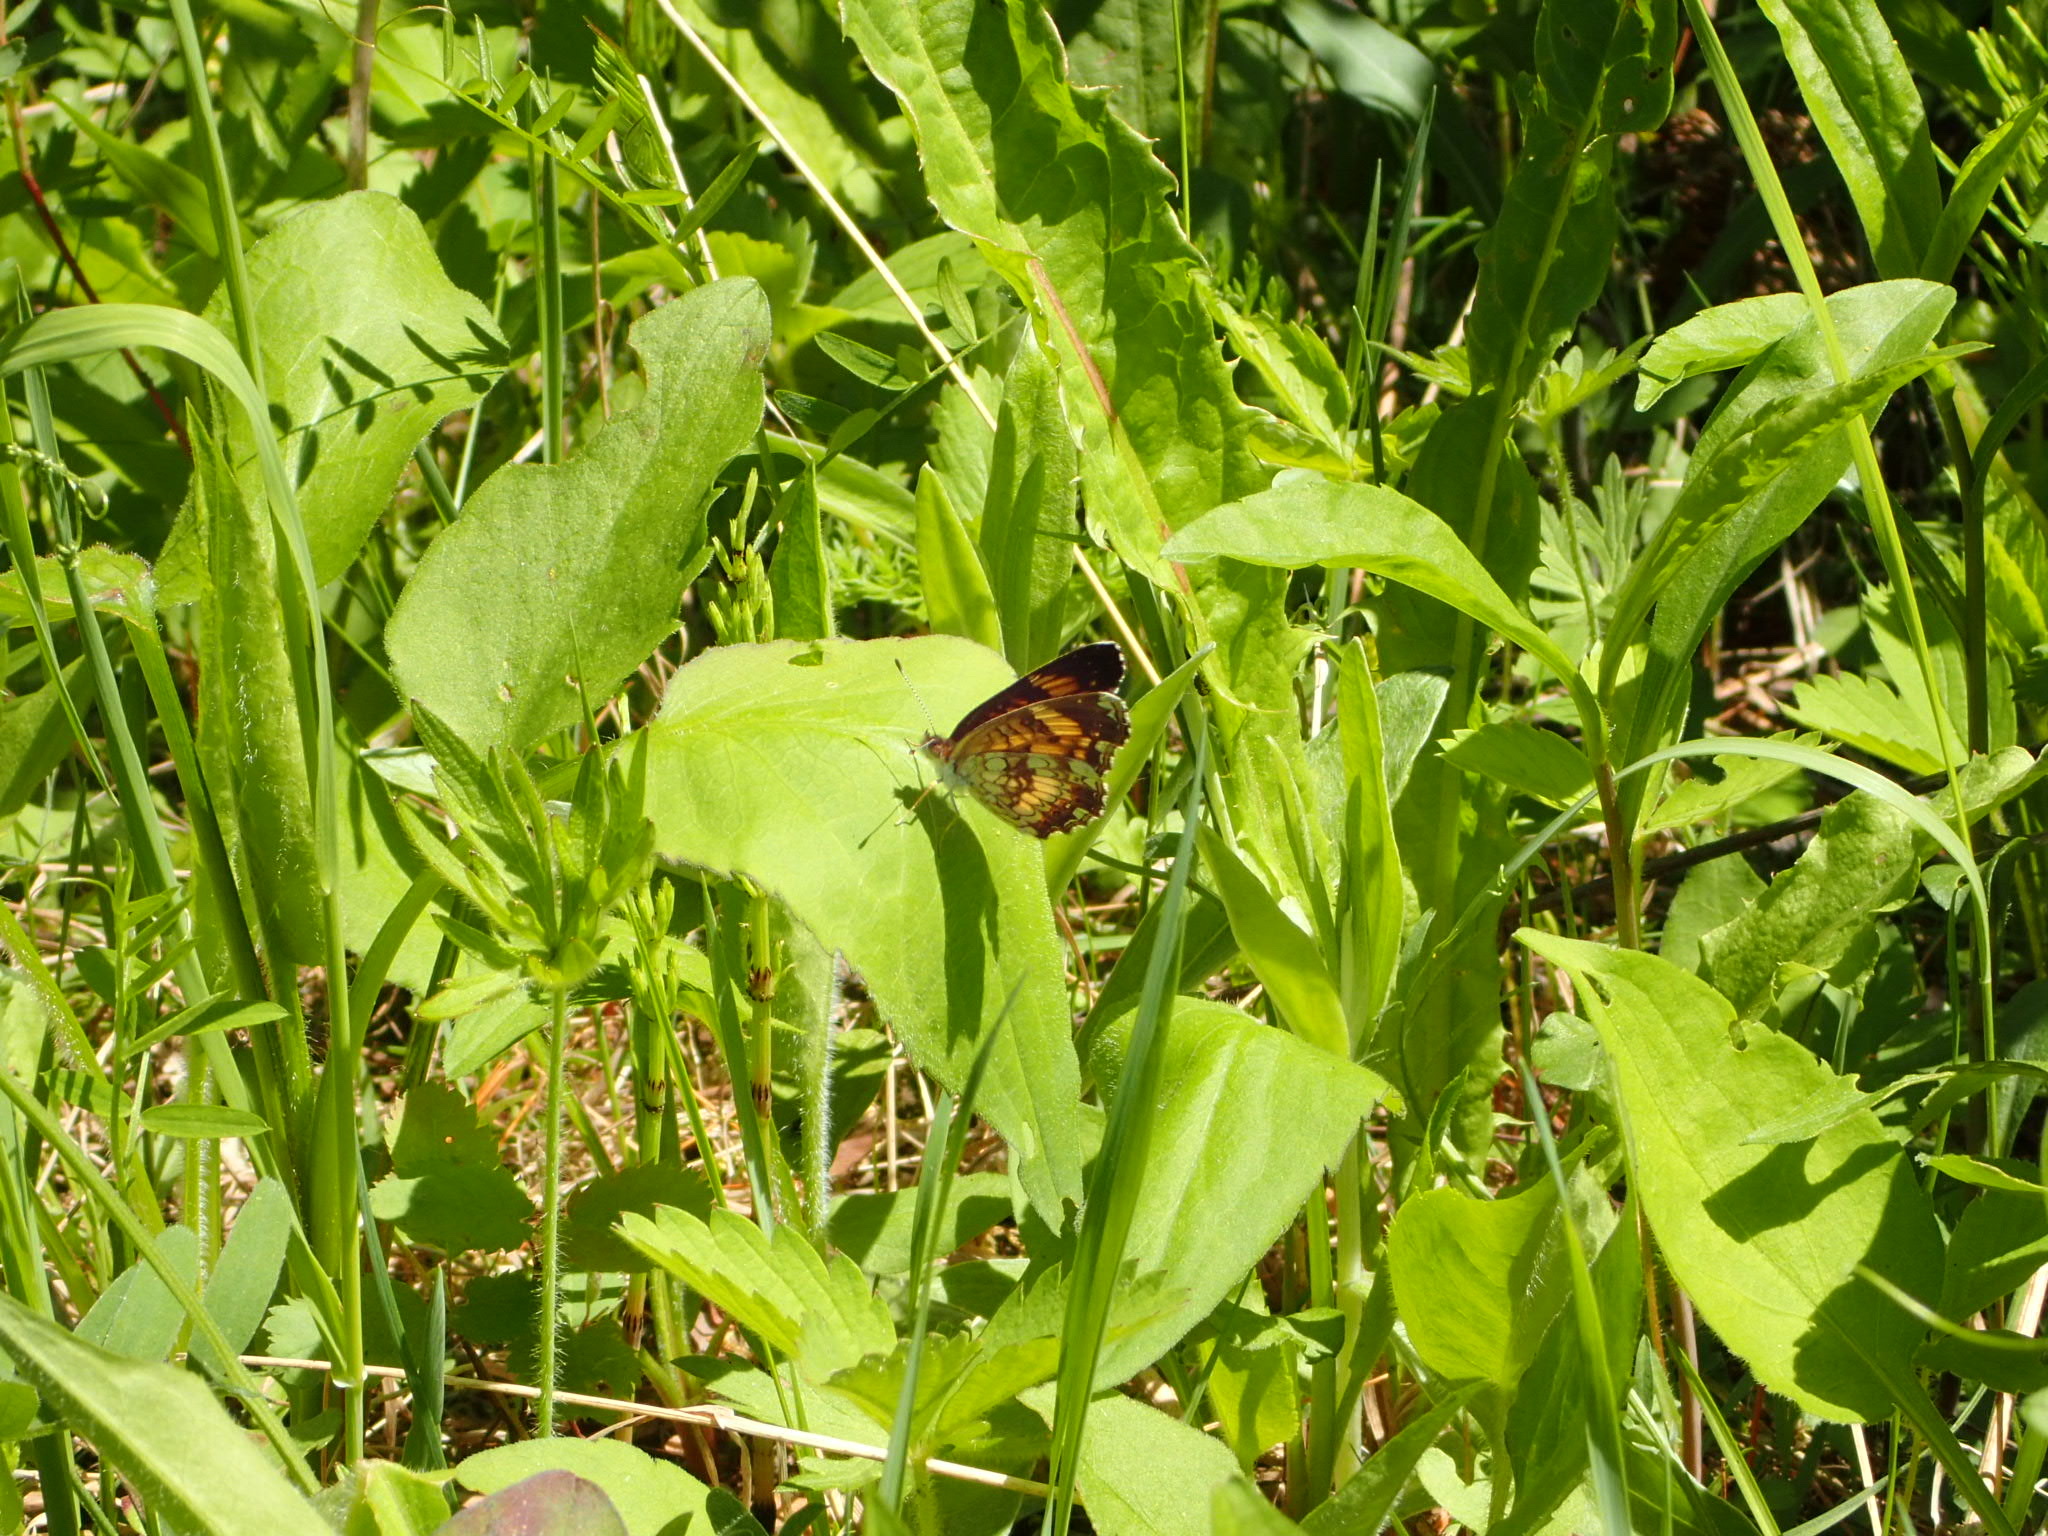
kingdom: Animalia
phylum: Arthropoda
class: Insecta
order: Lepidoptera
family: Nymphalidae
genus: Chlosyne
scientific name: Chlosyne nycteis
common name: Silvery checkerspot
